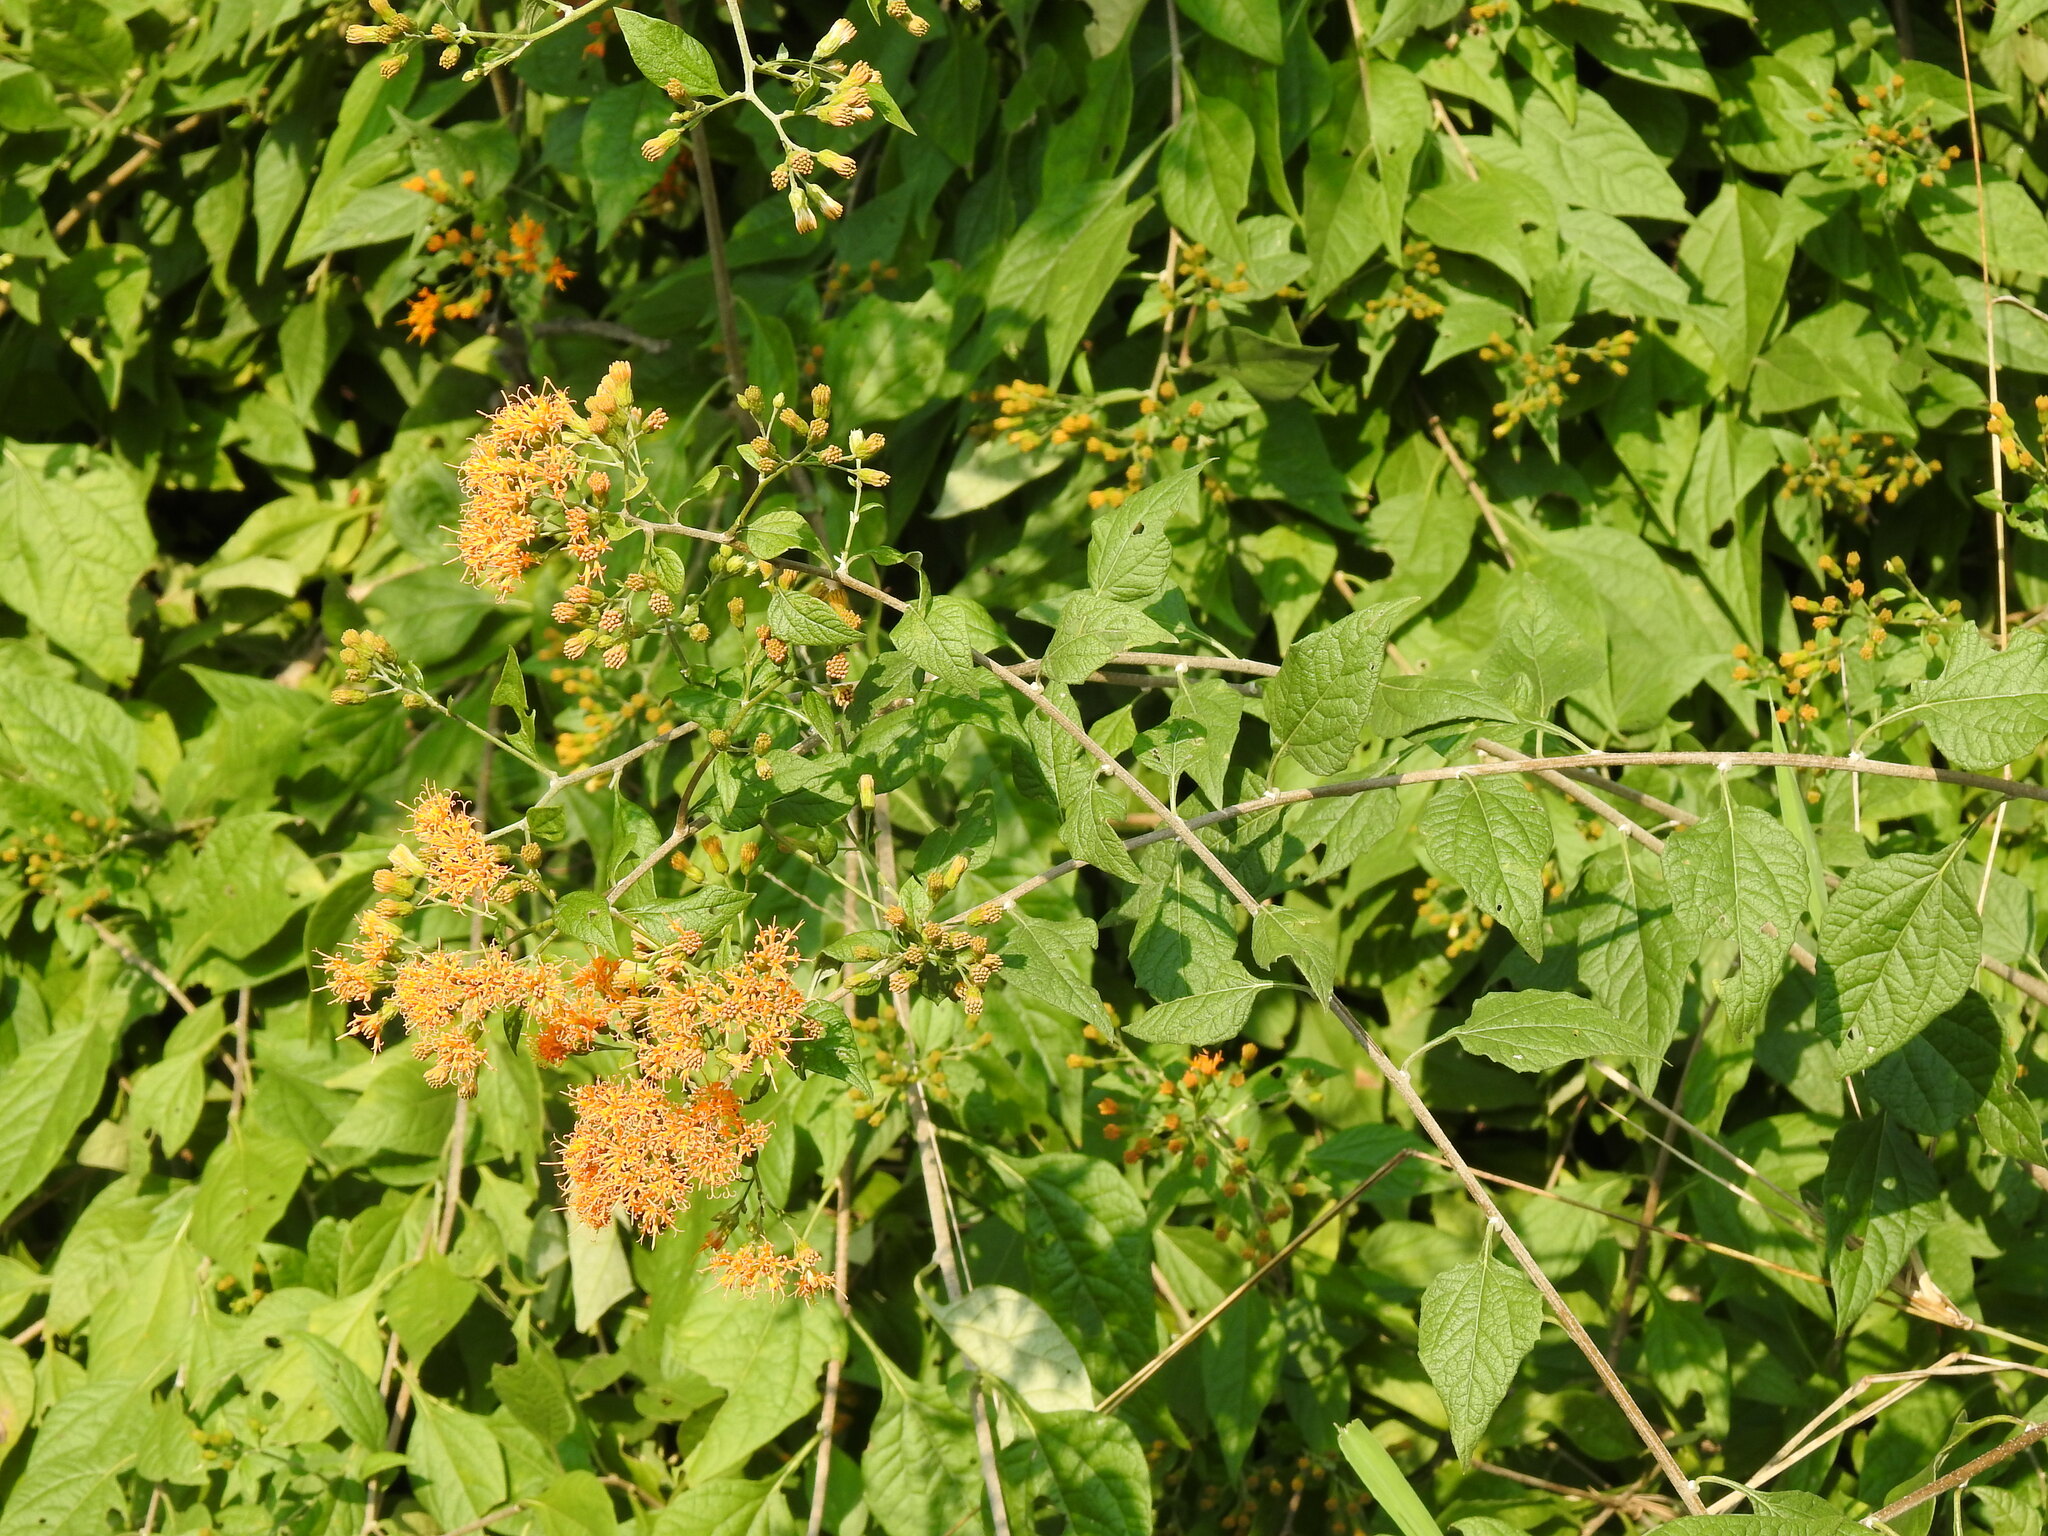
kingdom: Plantae
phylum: Tracheophyta
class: Magnoliopsida
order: Asterales
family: Asteraceae
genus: Distephanus
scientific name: Distephanus divaricatus
